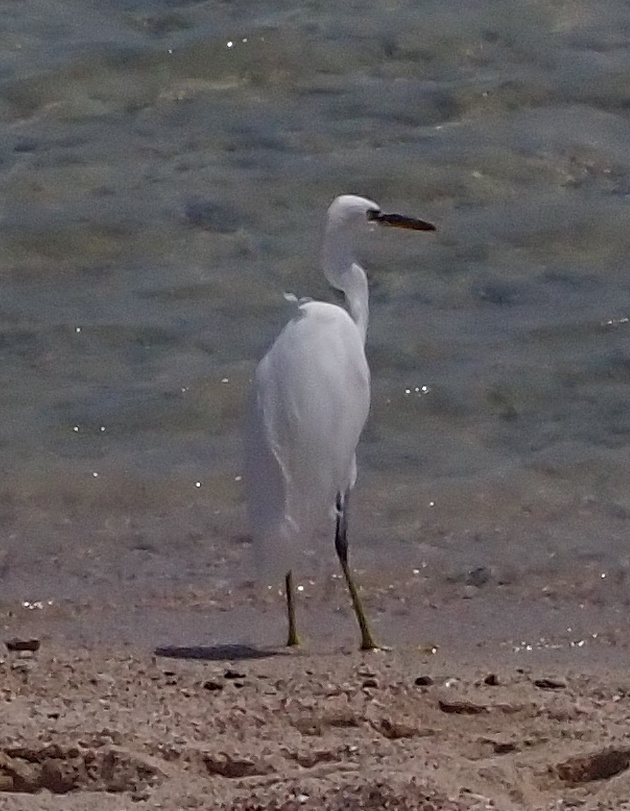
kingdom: Animalia
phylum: Chordata
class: Aves
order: Pelecaniformes
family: Ardeidae
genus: Egretta
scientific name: Egretta gularis
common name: Western reef-heron
